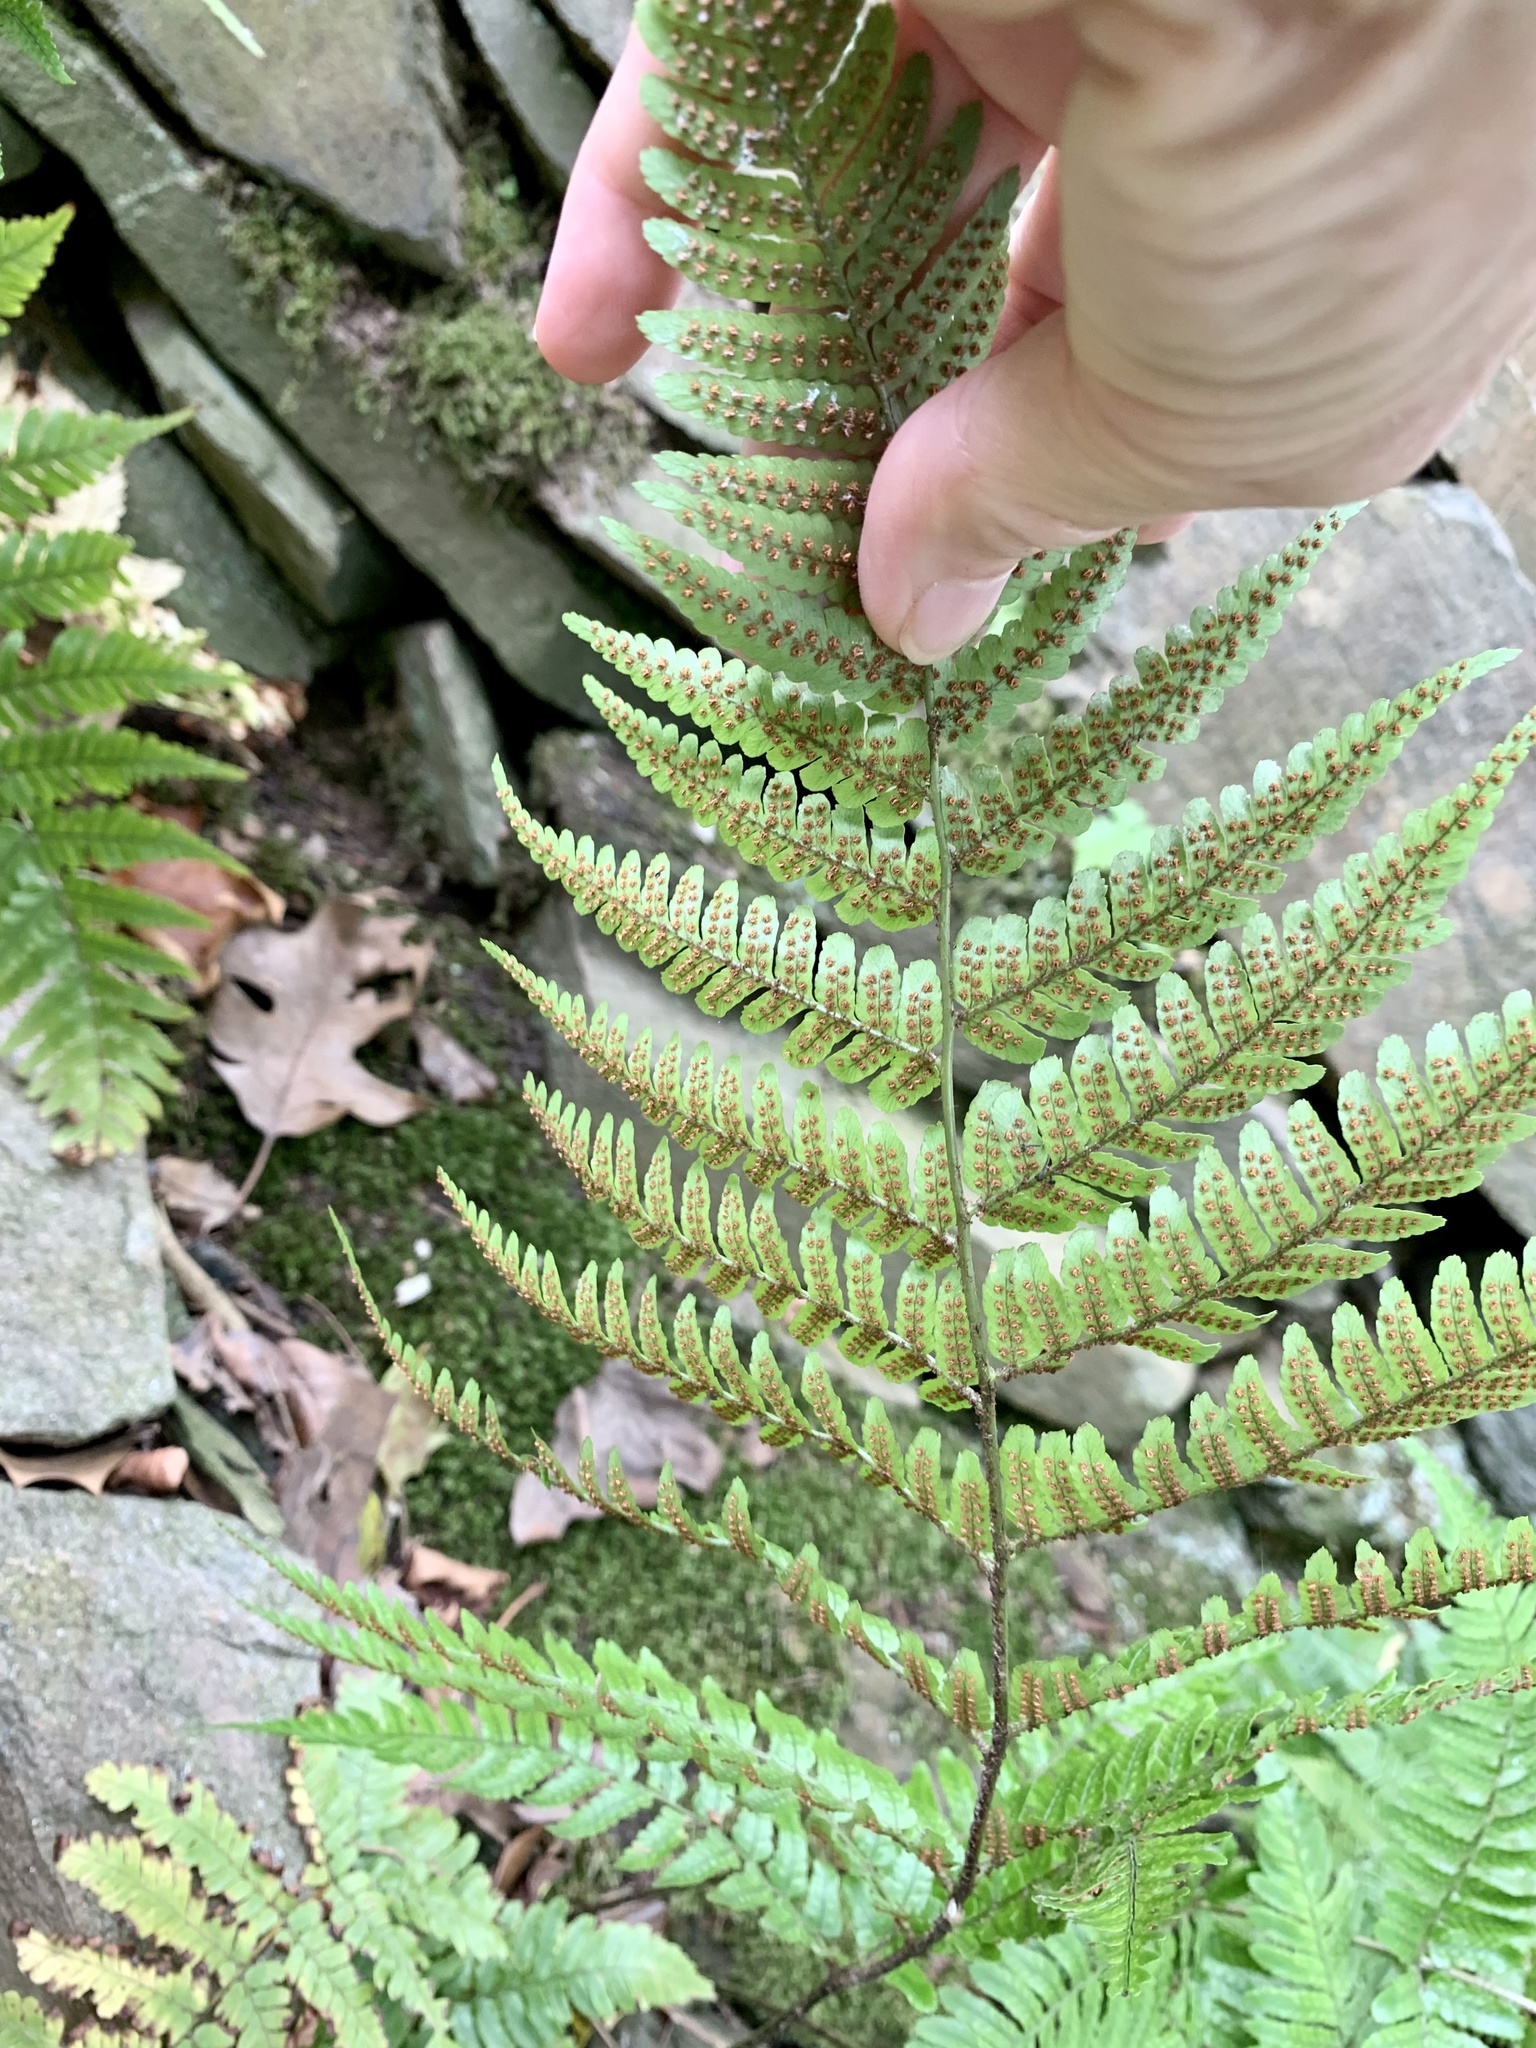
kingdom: Plantae
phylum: Tracheophyta
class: Polypodiopsida
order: Polypodiales
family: Dryopteridaceae
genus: Dryopteris
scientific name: Dryopteris erythrosora
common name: Autumn fern
